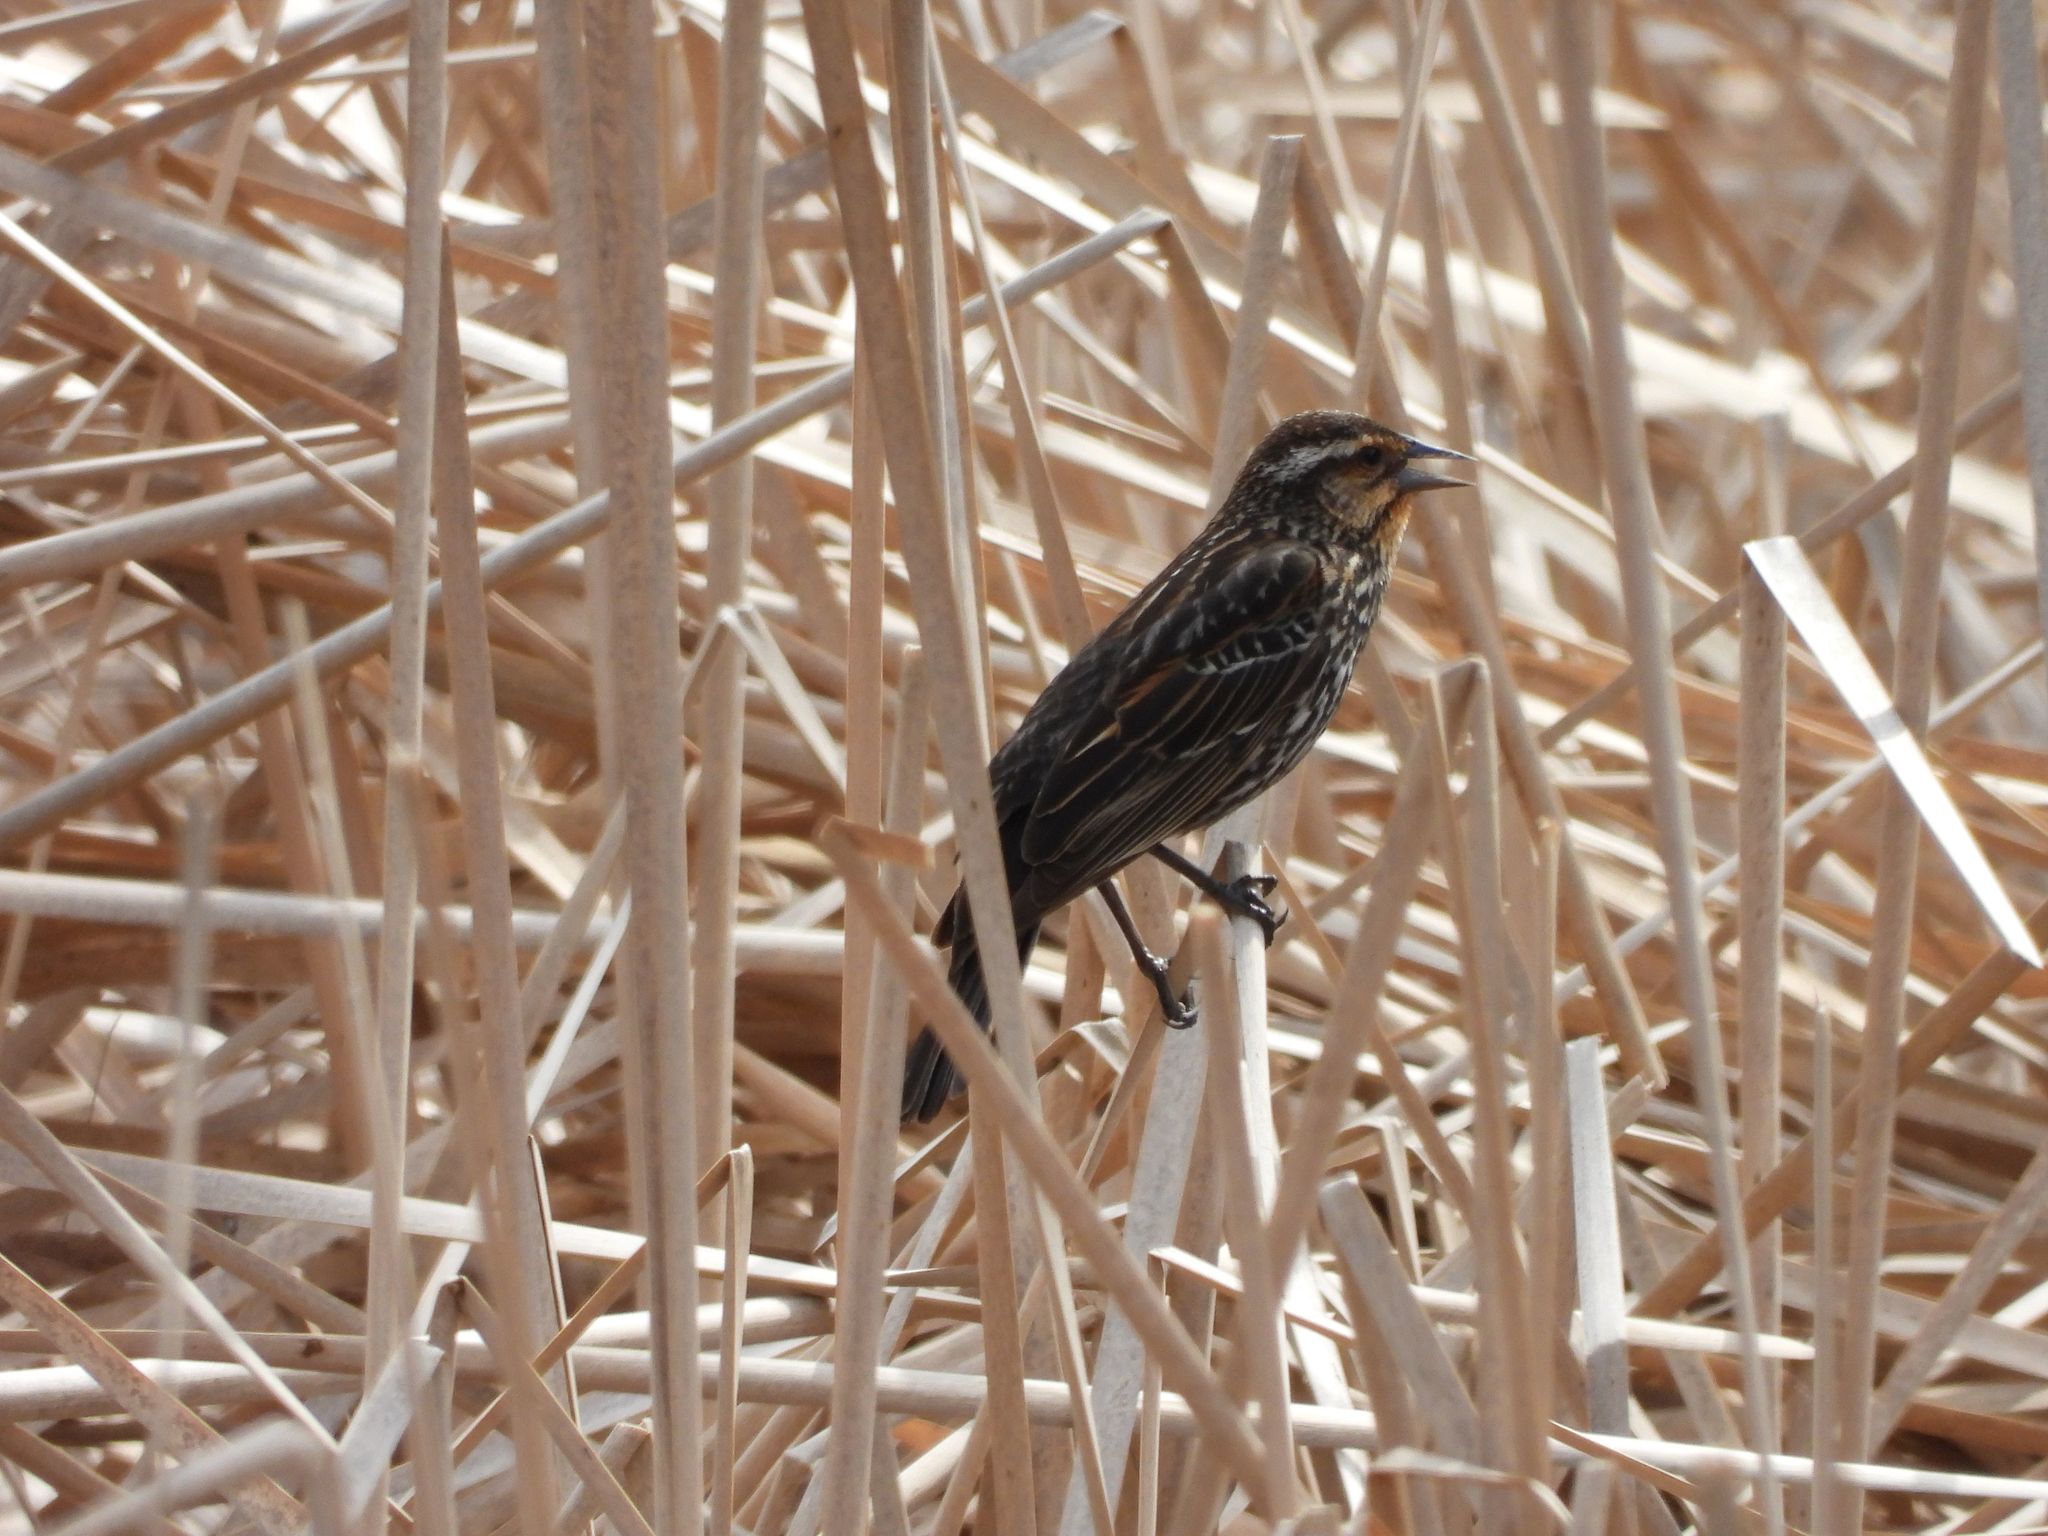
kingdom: Animalia
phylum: Chordata
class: Aves
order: Passeriformes
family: Icteridae
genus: Agelaius
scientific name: Agelaius phoeniceus
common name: Red-winged blackbird
